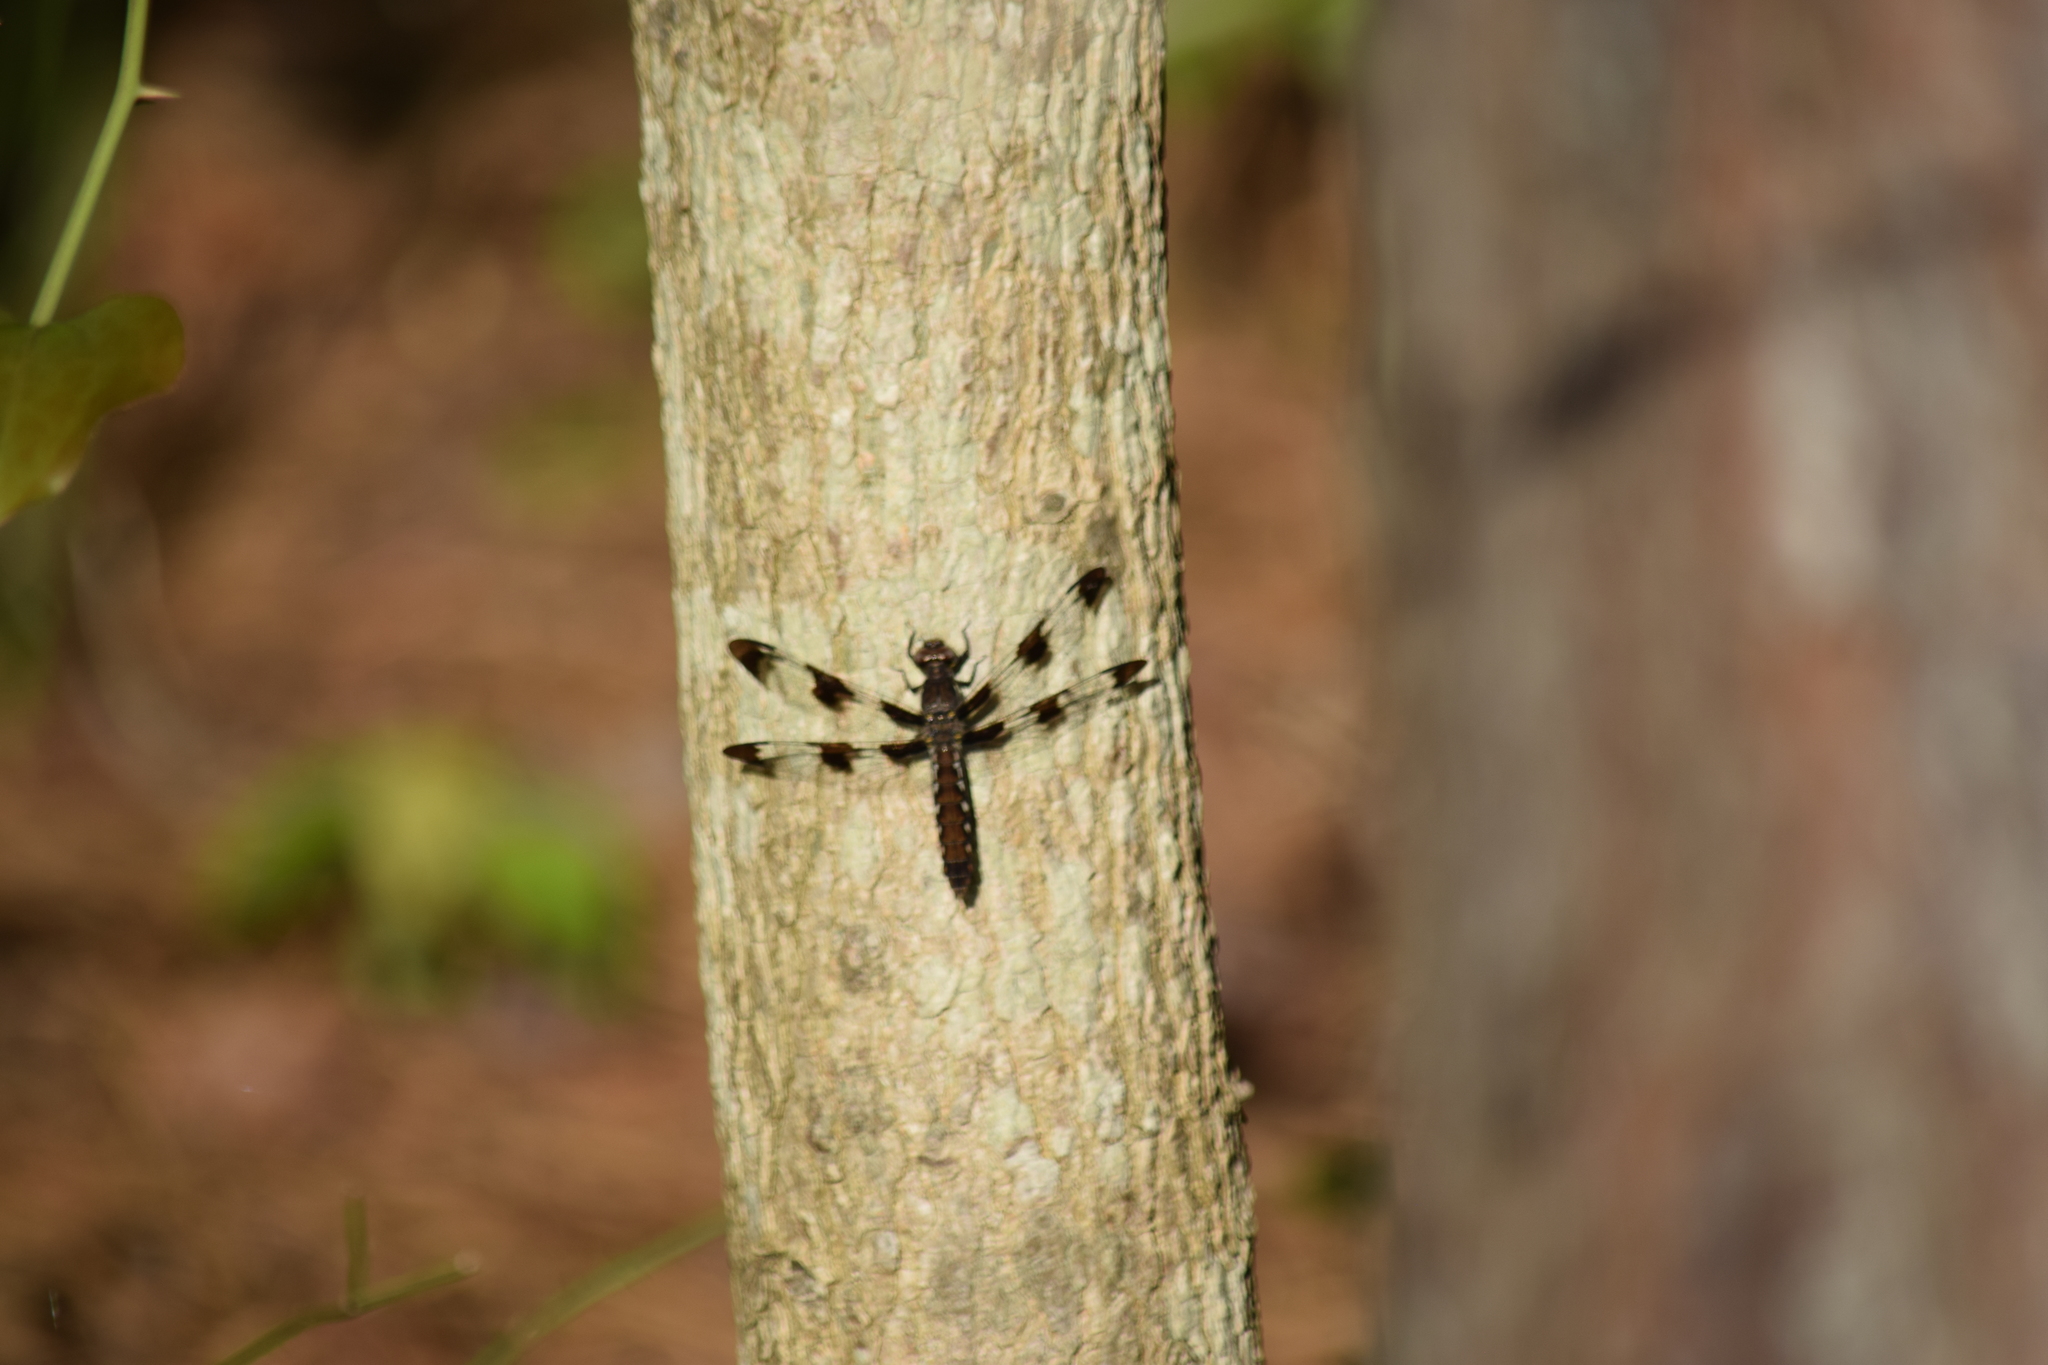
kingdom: Animalia
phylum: Arthropoda
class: Insecta
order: Odonata
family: Libellulidae
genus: Plathemis
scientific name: Plathemis lydia
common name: Common whitetail
